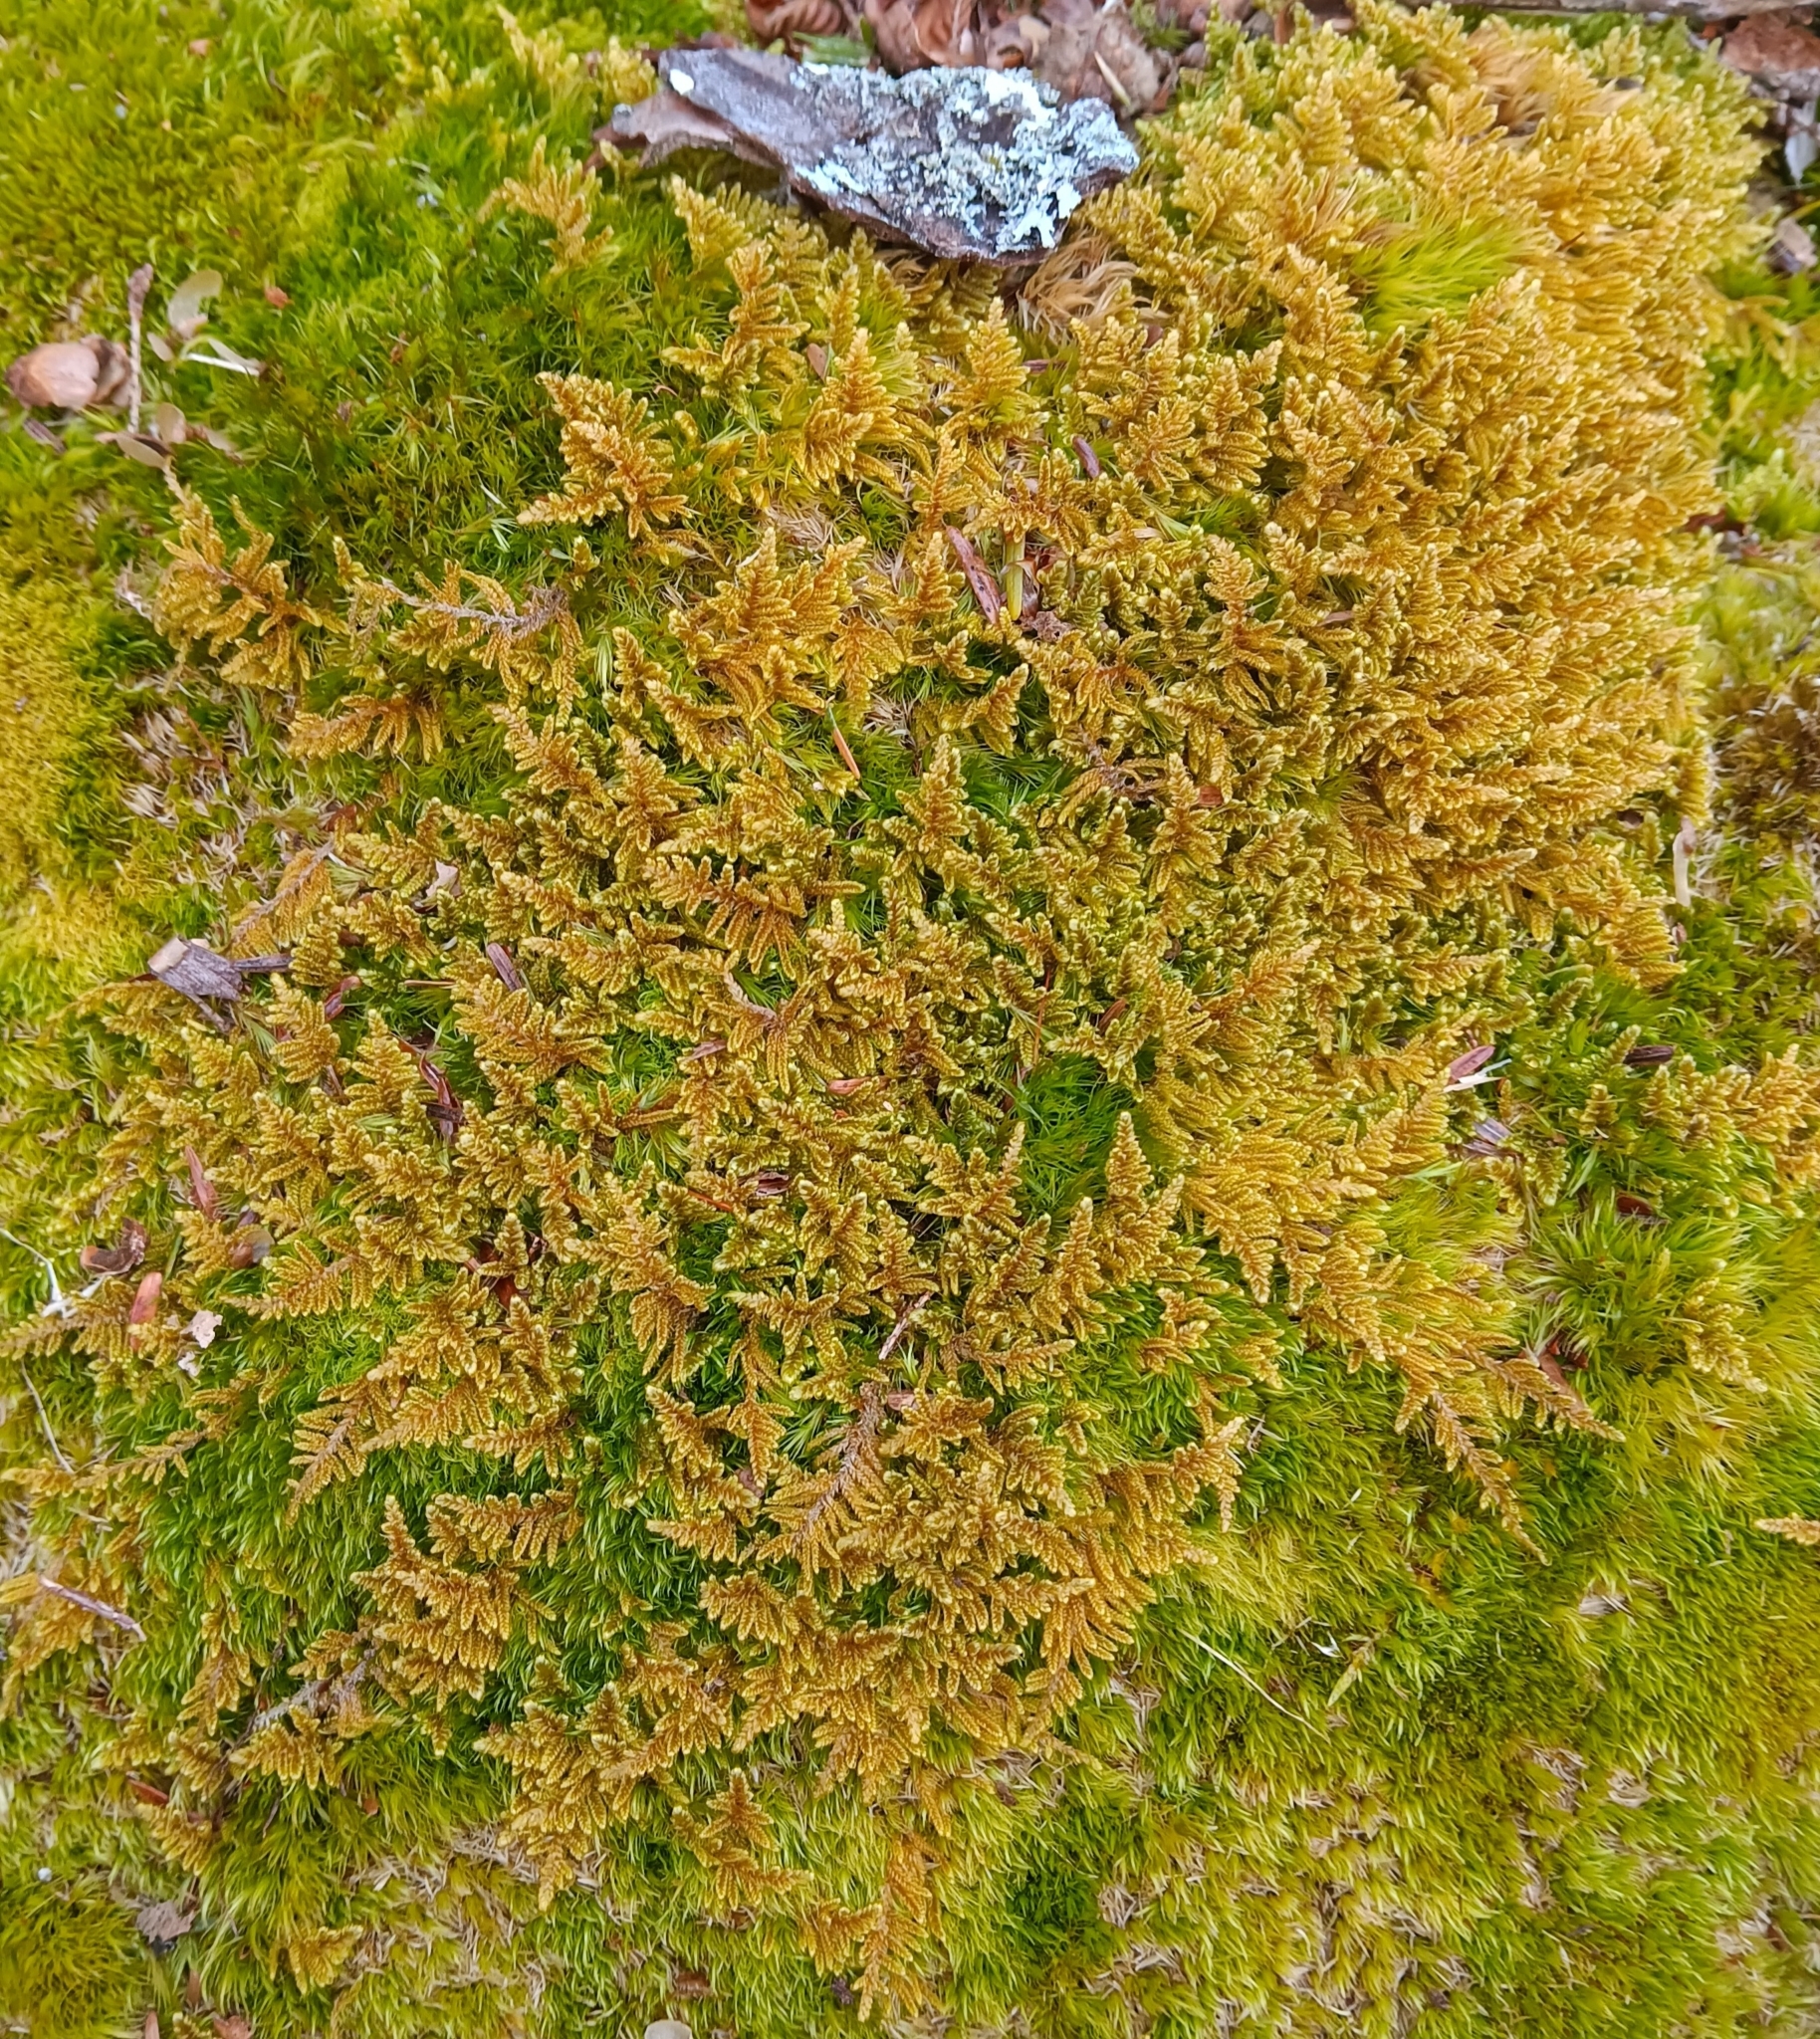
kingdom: Plantae
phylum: Bryophyta
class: Bryopsida
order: Hypnales
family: Callicladiaceae
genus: Callicladium
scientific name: Callicladium imponens
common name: Brocade moss
